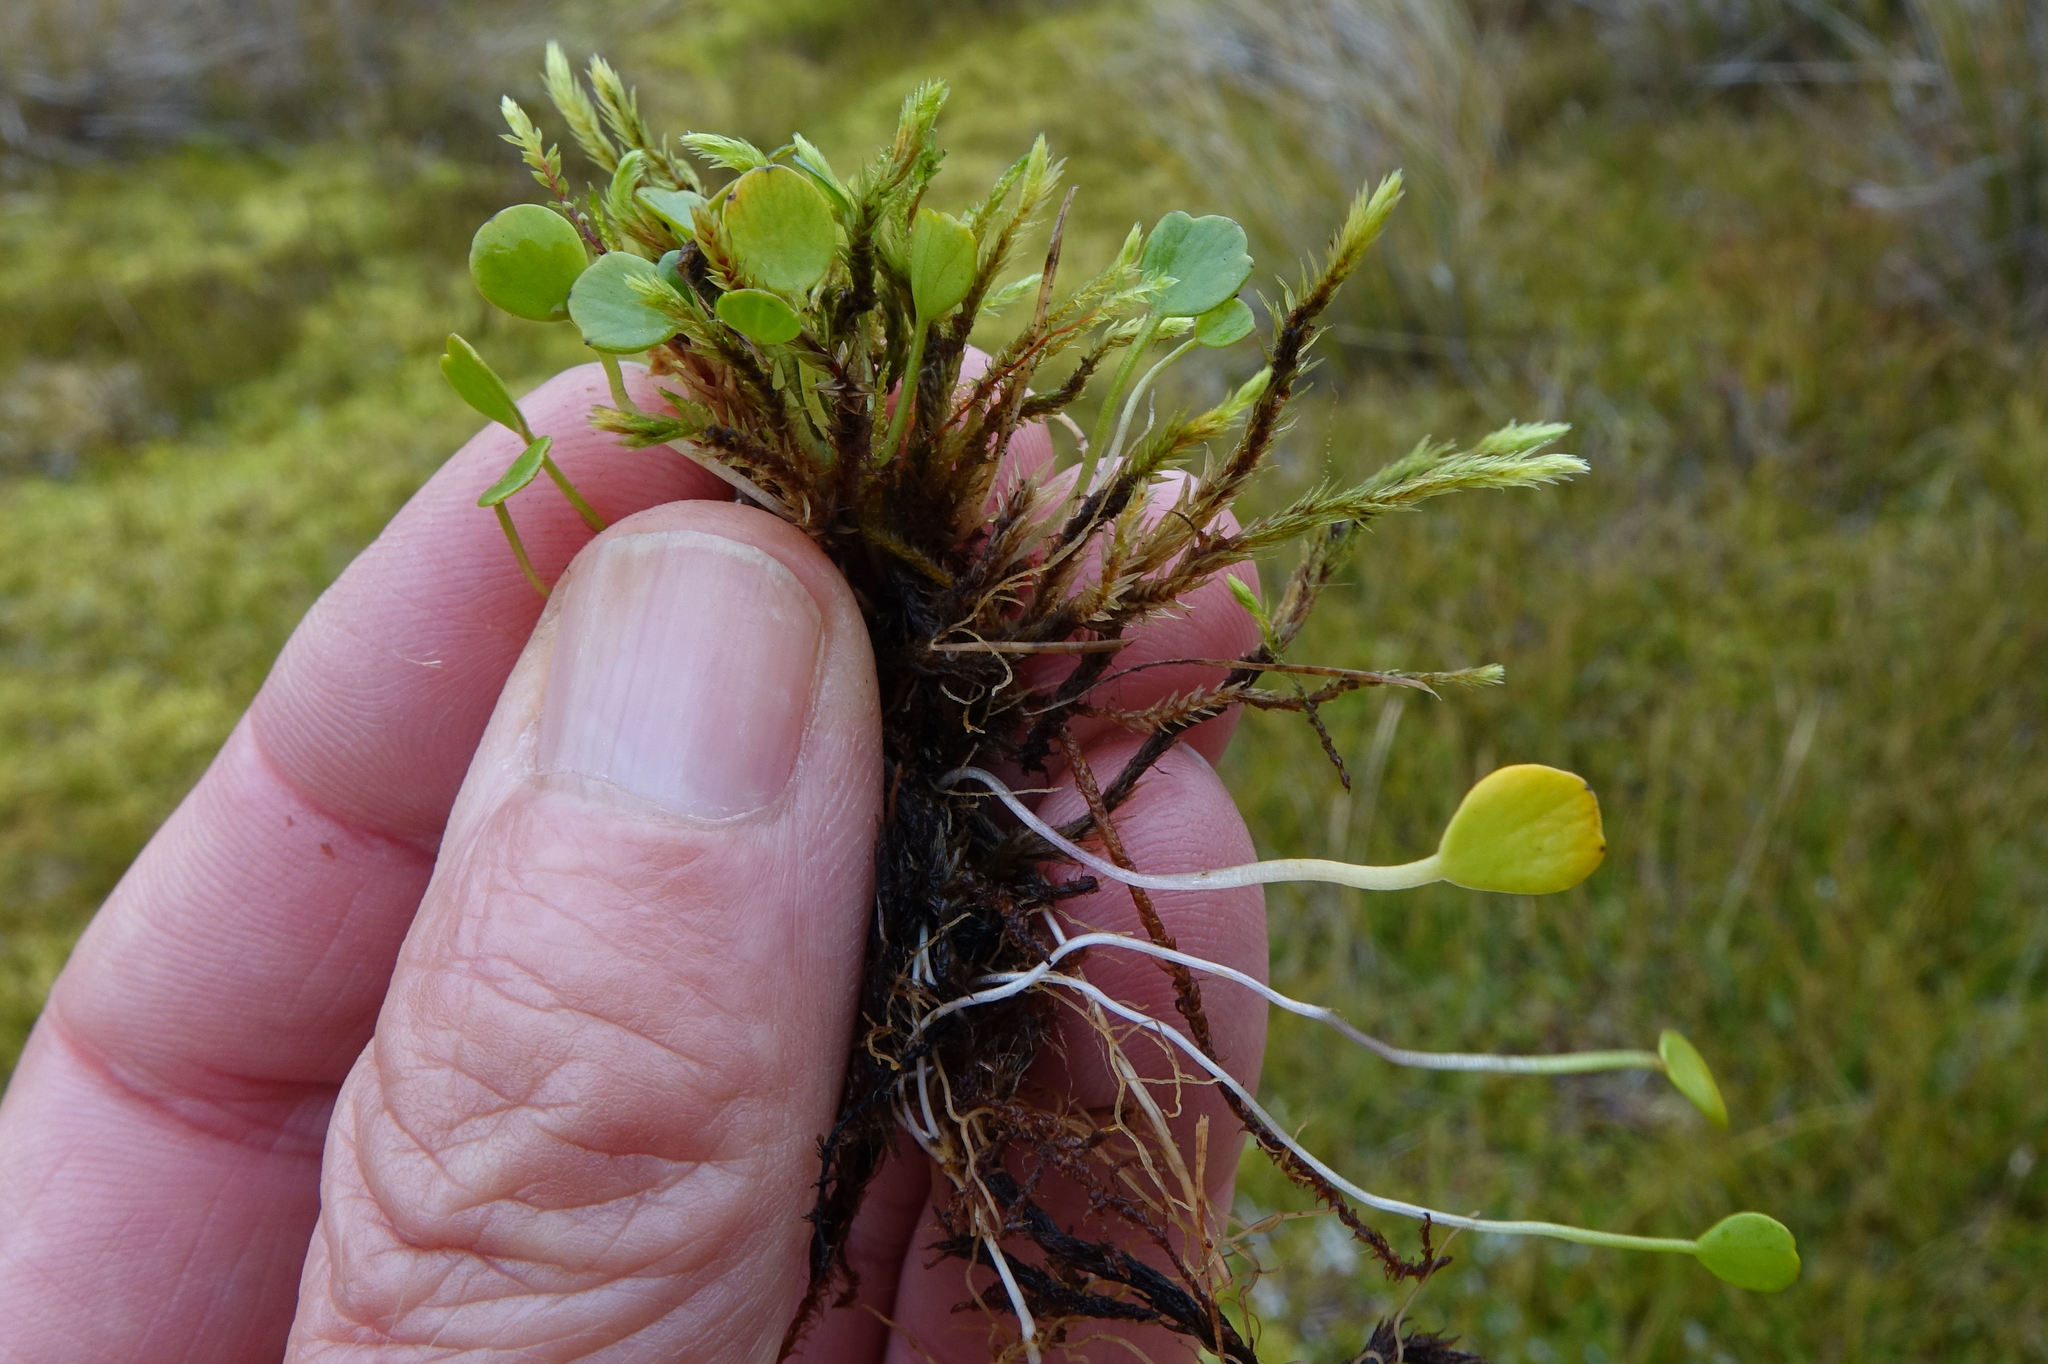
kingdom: Plantae
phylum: Tracheophyta
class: Magnoliopsida
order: Apiales
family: Apiaceae
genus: Azorella
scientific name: Azorella cockaynei
